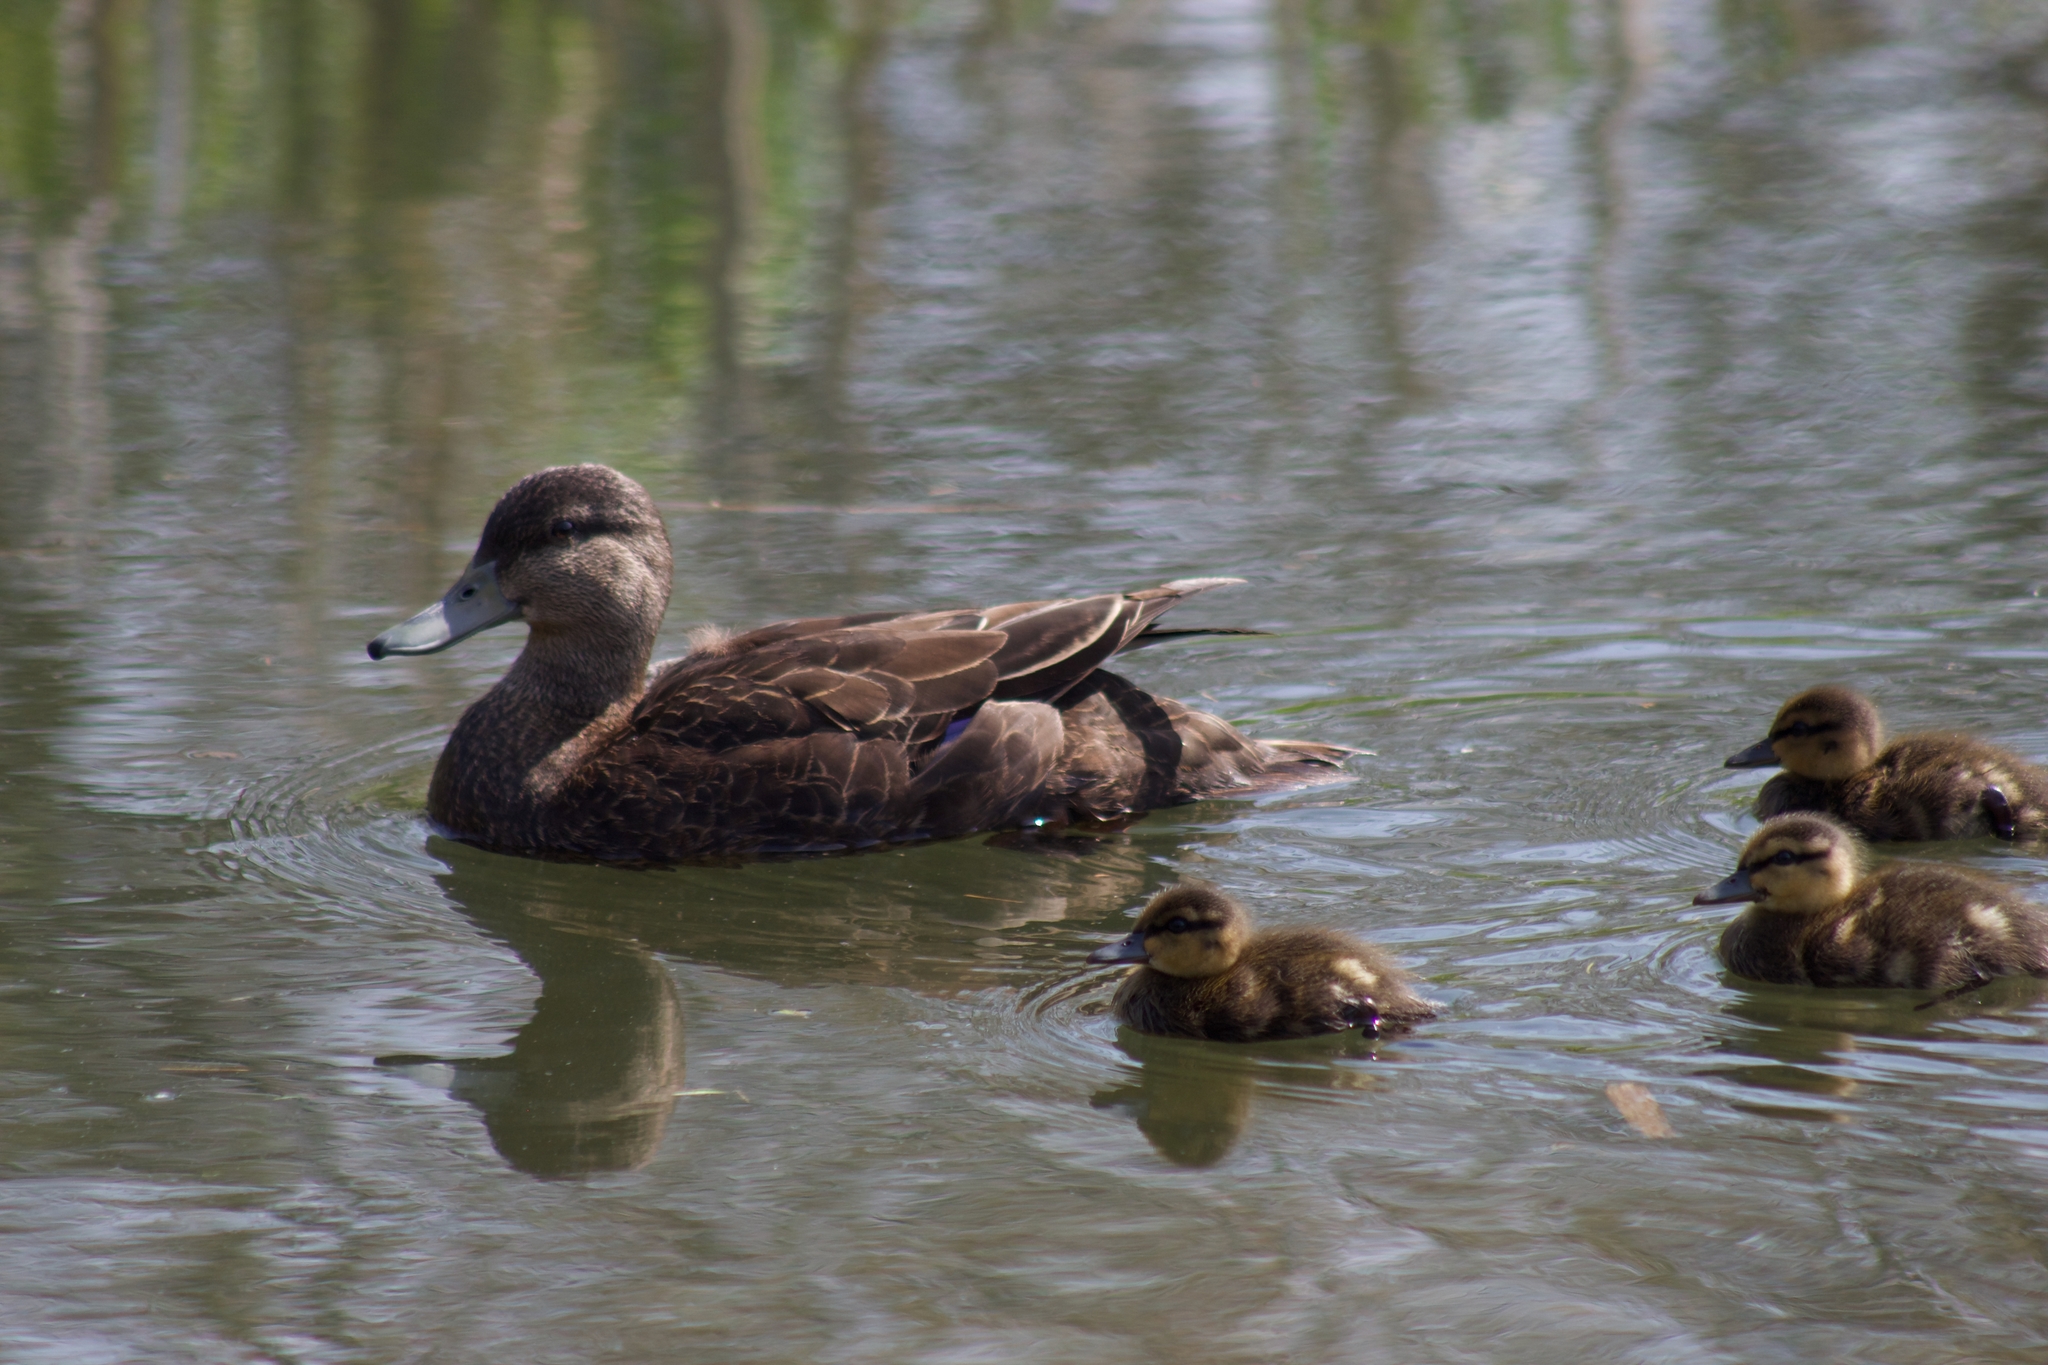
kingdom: Animalia
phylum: Chordata
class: Aves
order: Anseriformes
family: Anatidae
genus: Anas
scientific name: Anas rubripes
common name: American black duck
